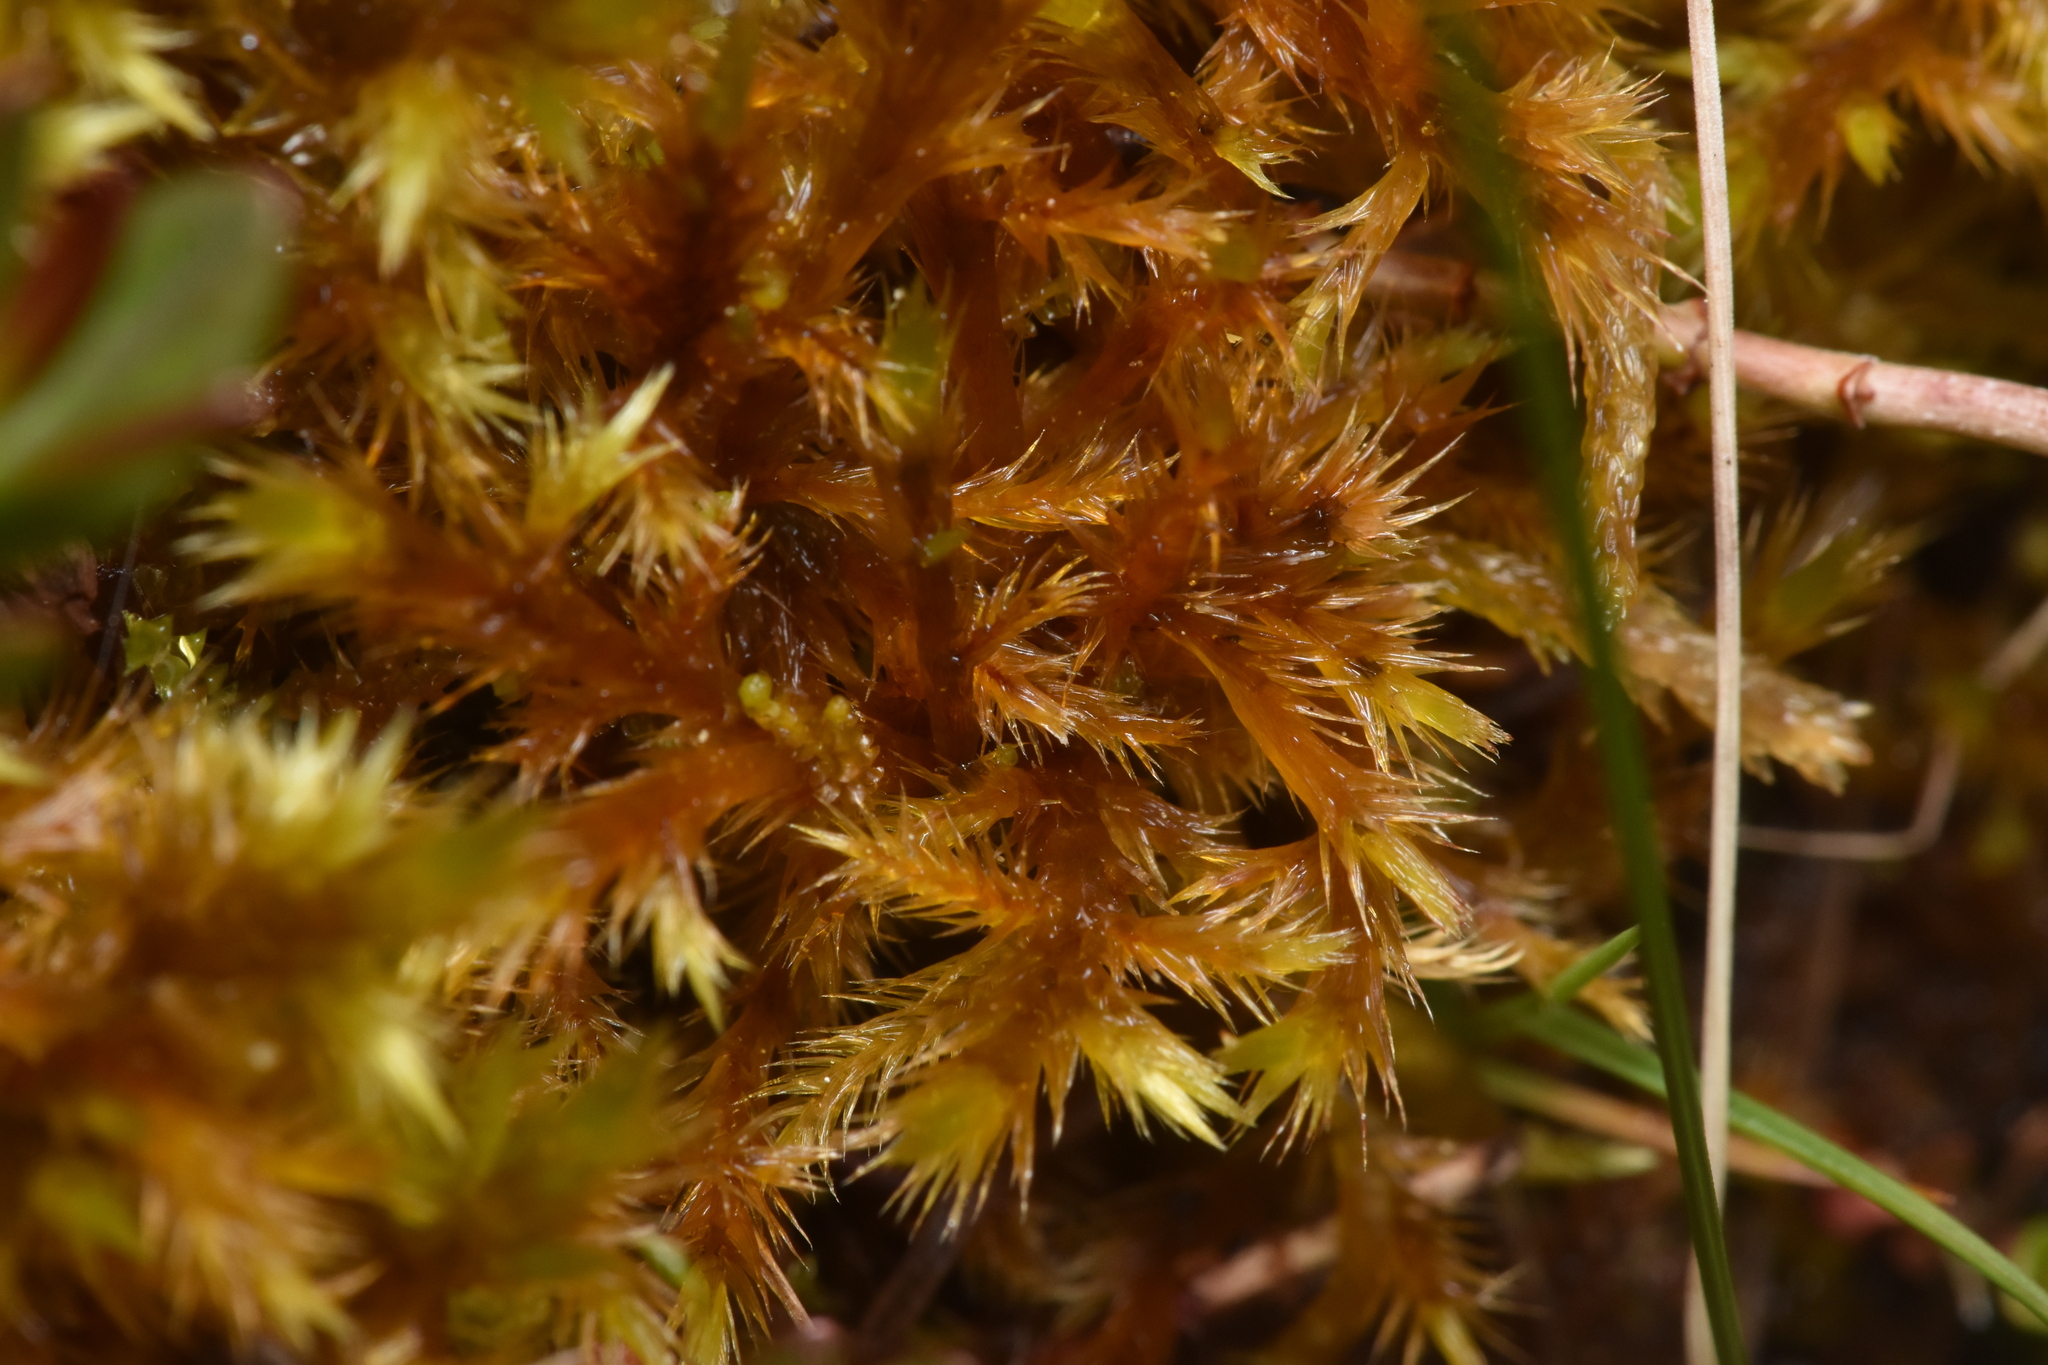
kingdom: Plantae
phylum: Bryophyta
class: Bryopsida
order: Hypnales
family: Amblystegiaceae
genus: Tomentypnum
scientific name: Tomentypnum nitens
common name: Golden fuzzy fen moss
